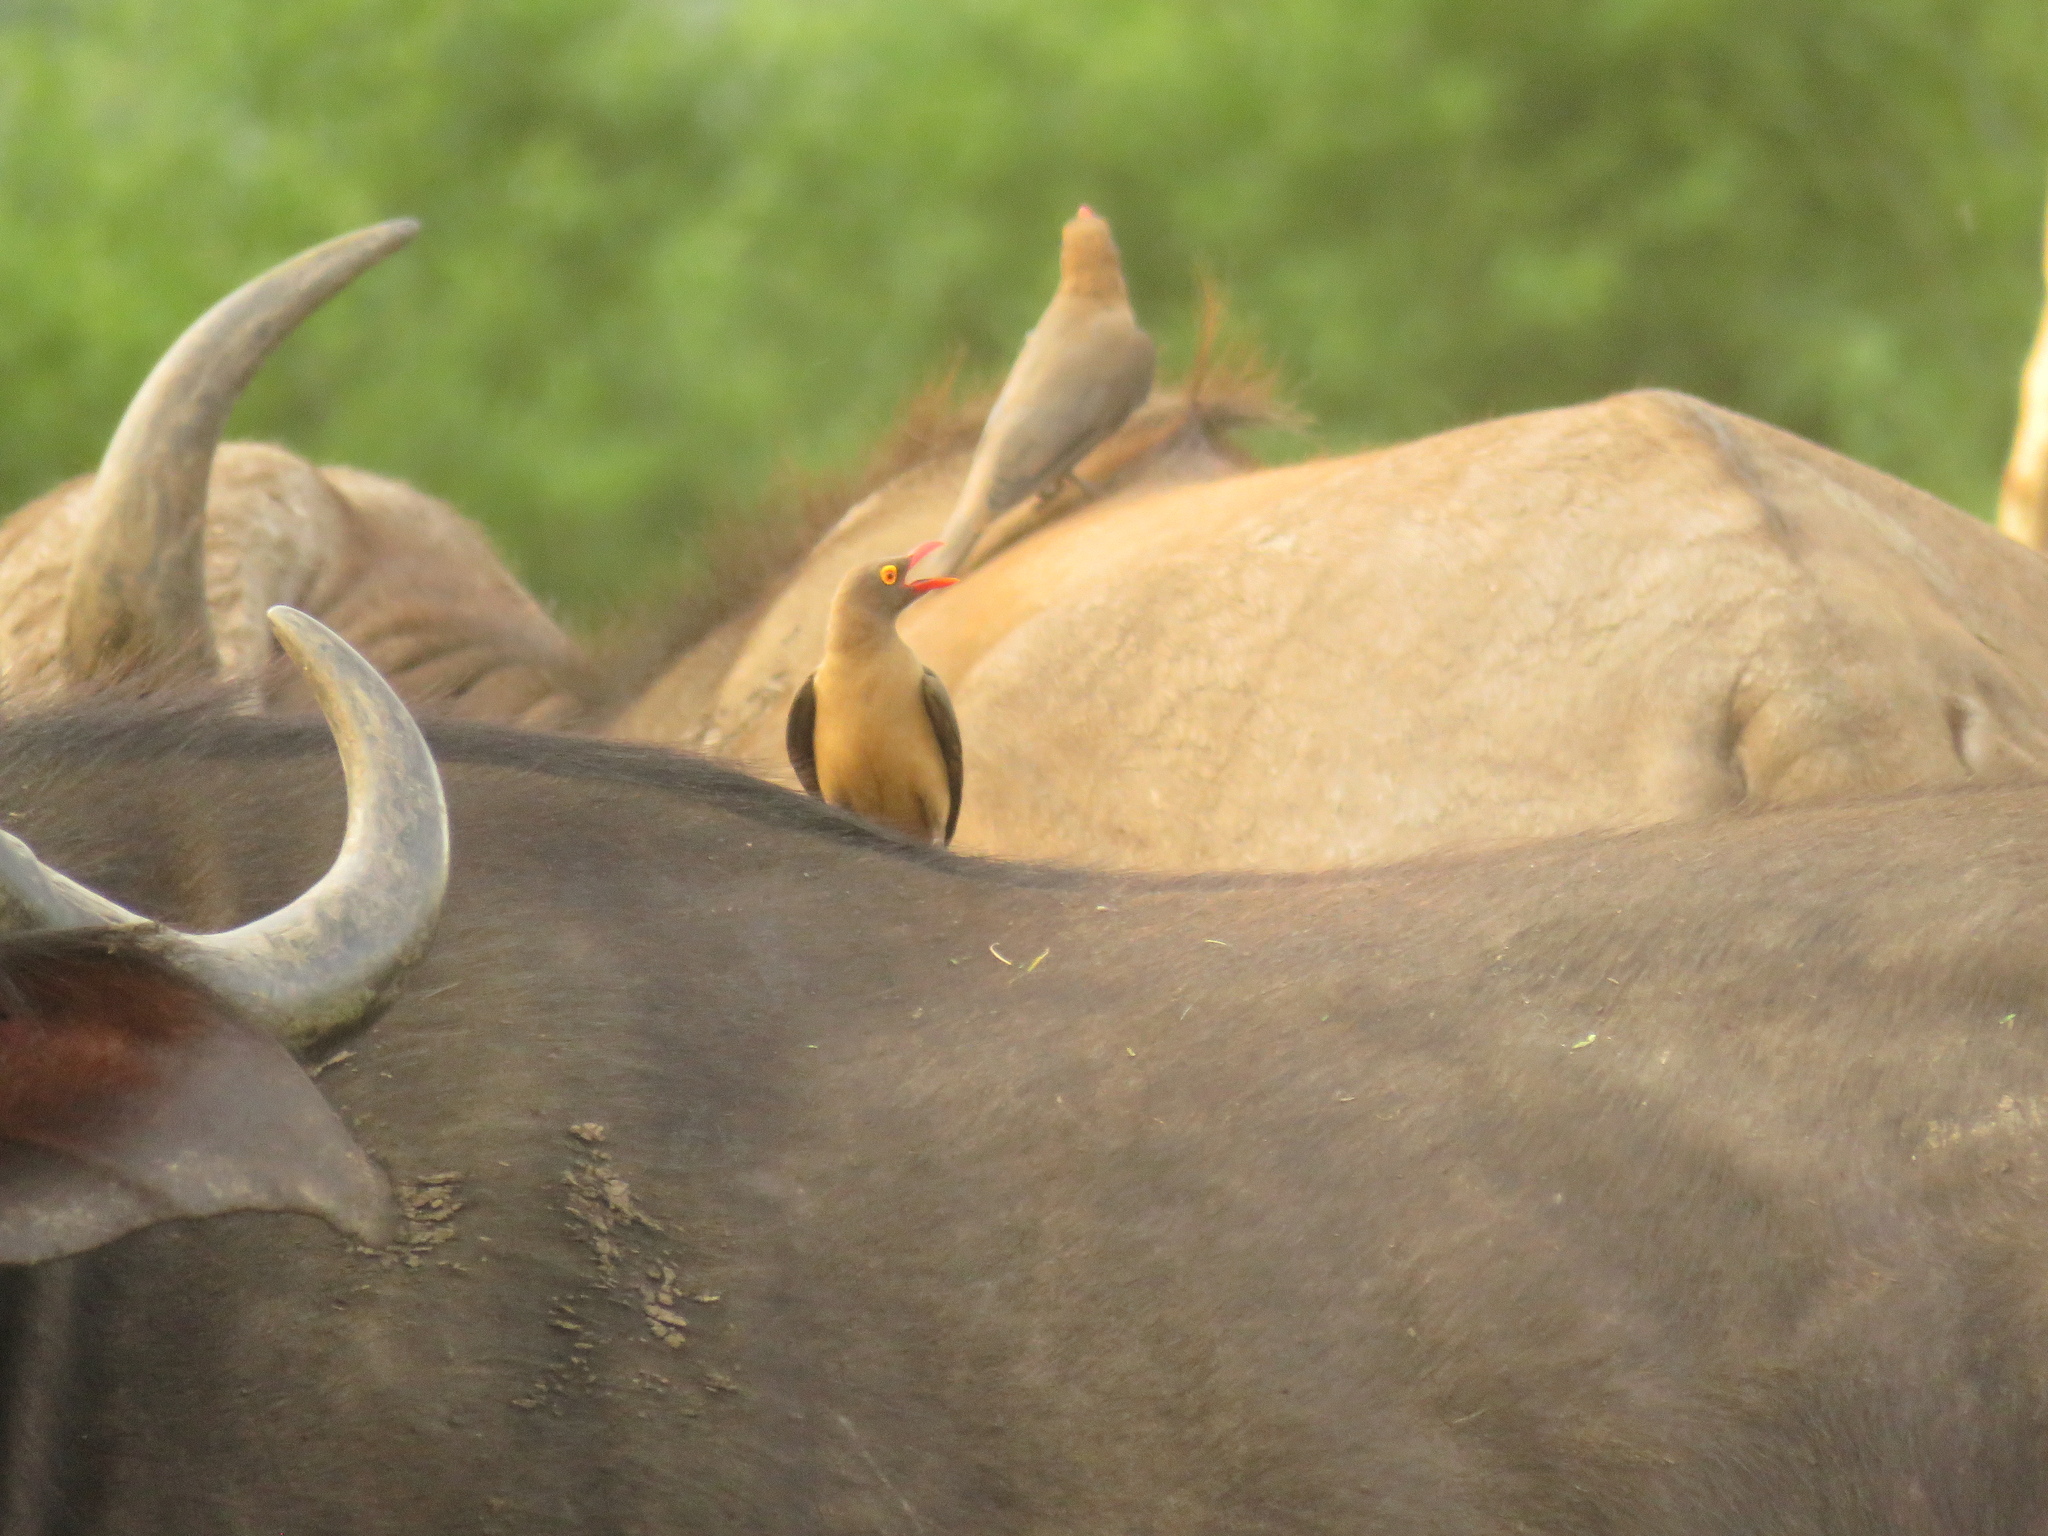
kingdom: Animalia
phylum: Chordata
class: Aves
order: Passeriformes
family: Buphagidae
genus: Buphagus
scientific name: Buphagus erythrorhynchus
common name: Red-billed oxpecker
